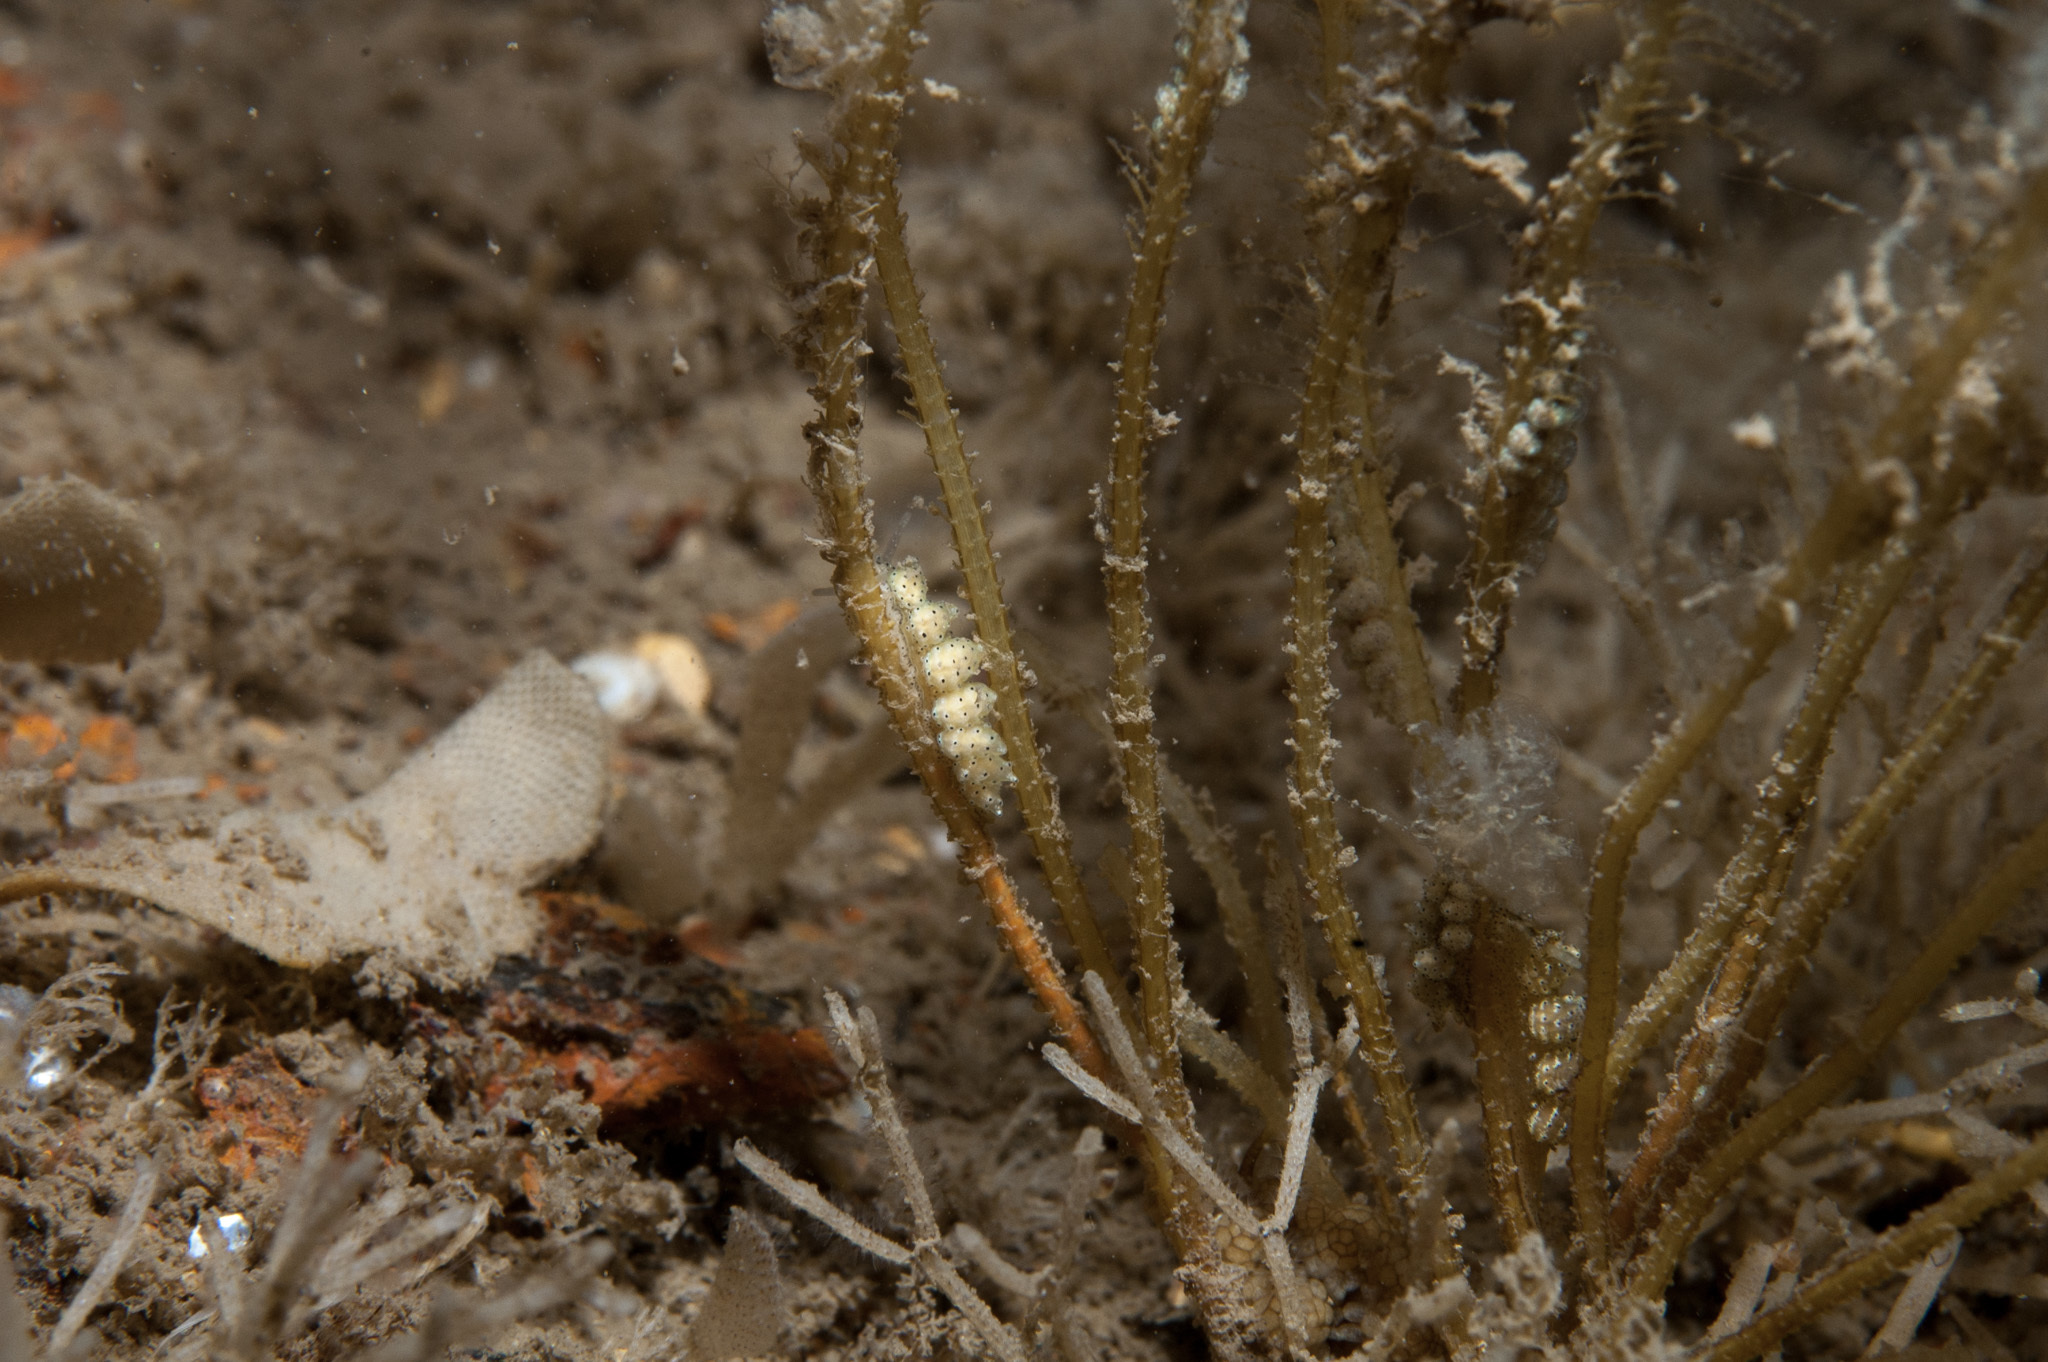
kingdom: Animalia
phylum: Mollusca
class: Gastropoda
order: Nudibranchia
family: Dotidae
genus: Doto
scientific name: Doto pinnatifida
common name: Feathered doto
